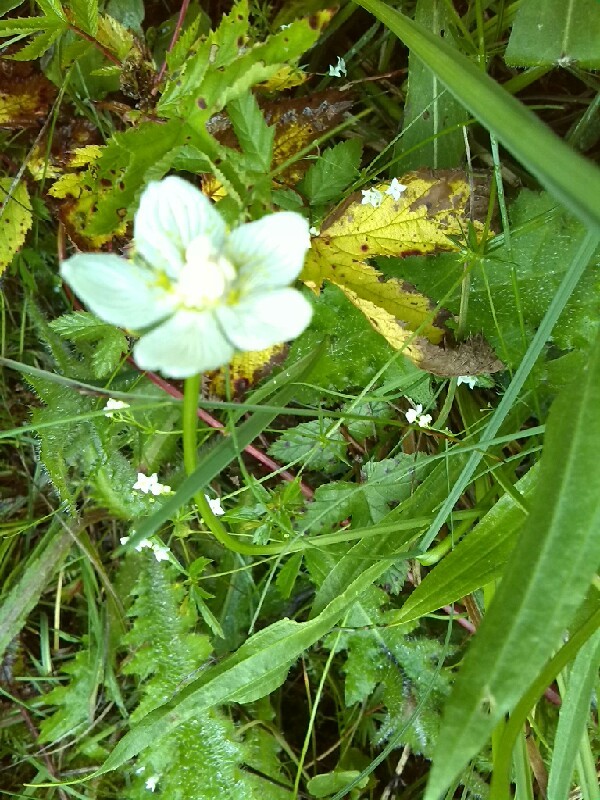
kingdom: Plantae
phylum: Tracheophyta
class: Magnoliopsida
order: Celastrales
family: Parnassiaceae
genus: Parnassia
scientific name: Parnassia palustris
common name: Grass-of-parnassus
